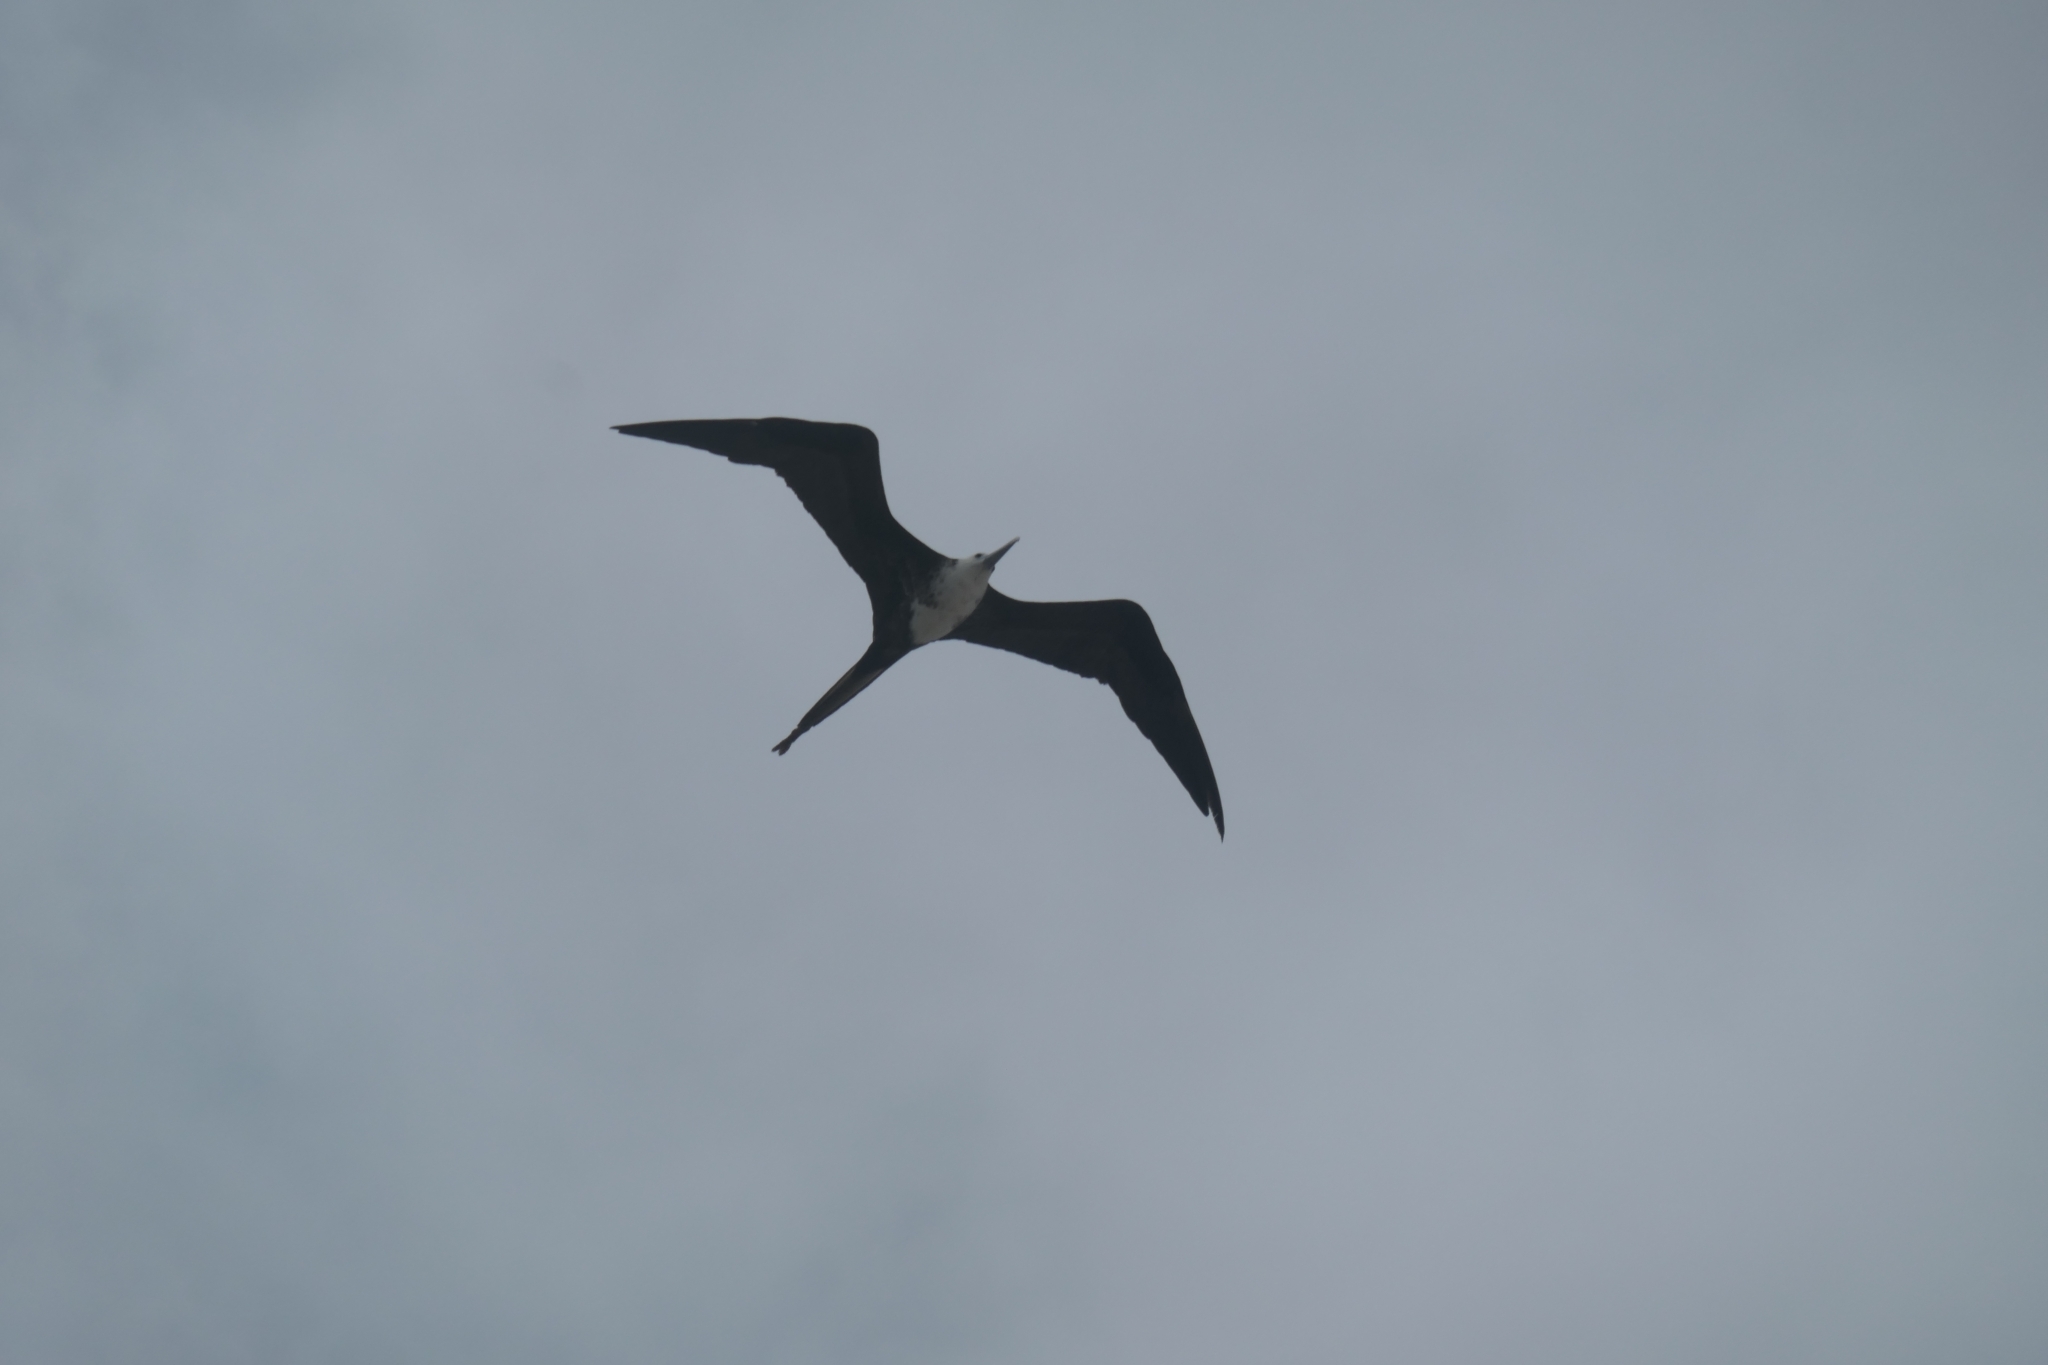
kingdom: Animalia
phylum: Chordata
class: Aves
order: Suliformes
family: Fregatidae
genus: Fregata
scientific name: Fregata magnificens
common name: Magnificent frigatebird
